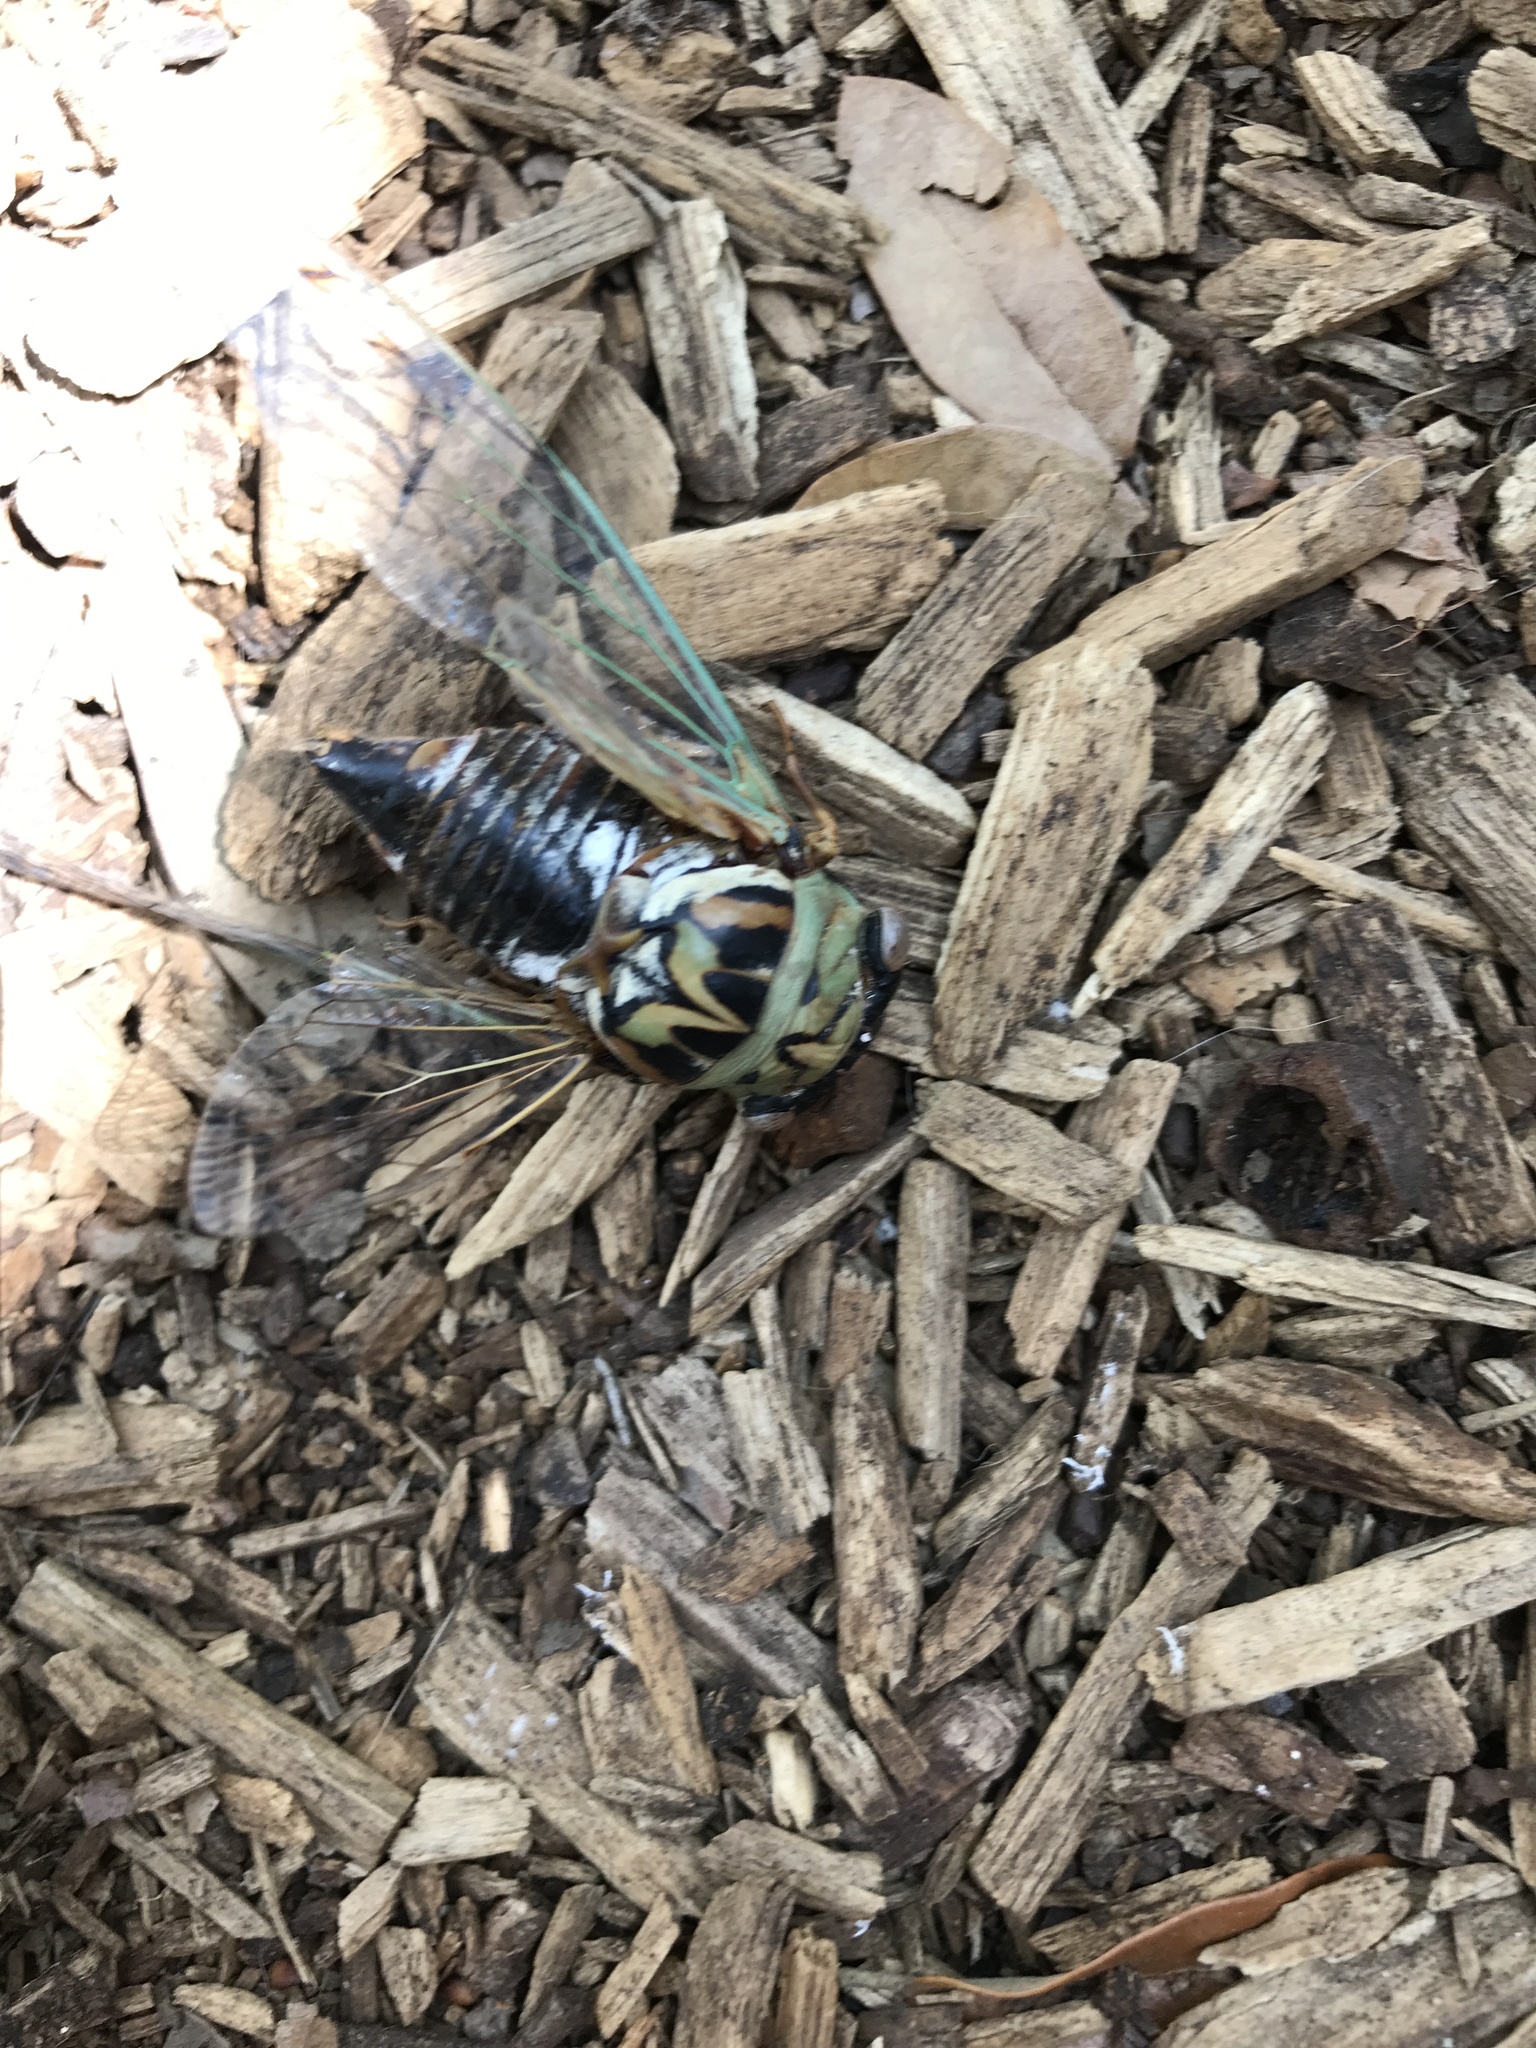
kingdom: Animalia
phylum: Arthropoda
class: Insecta
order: Hemiptera
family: Cicadidae
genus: Megatibicen
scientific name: Megatibicen resh
